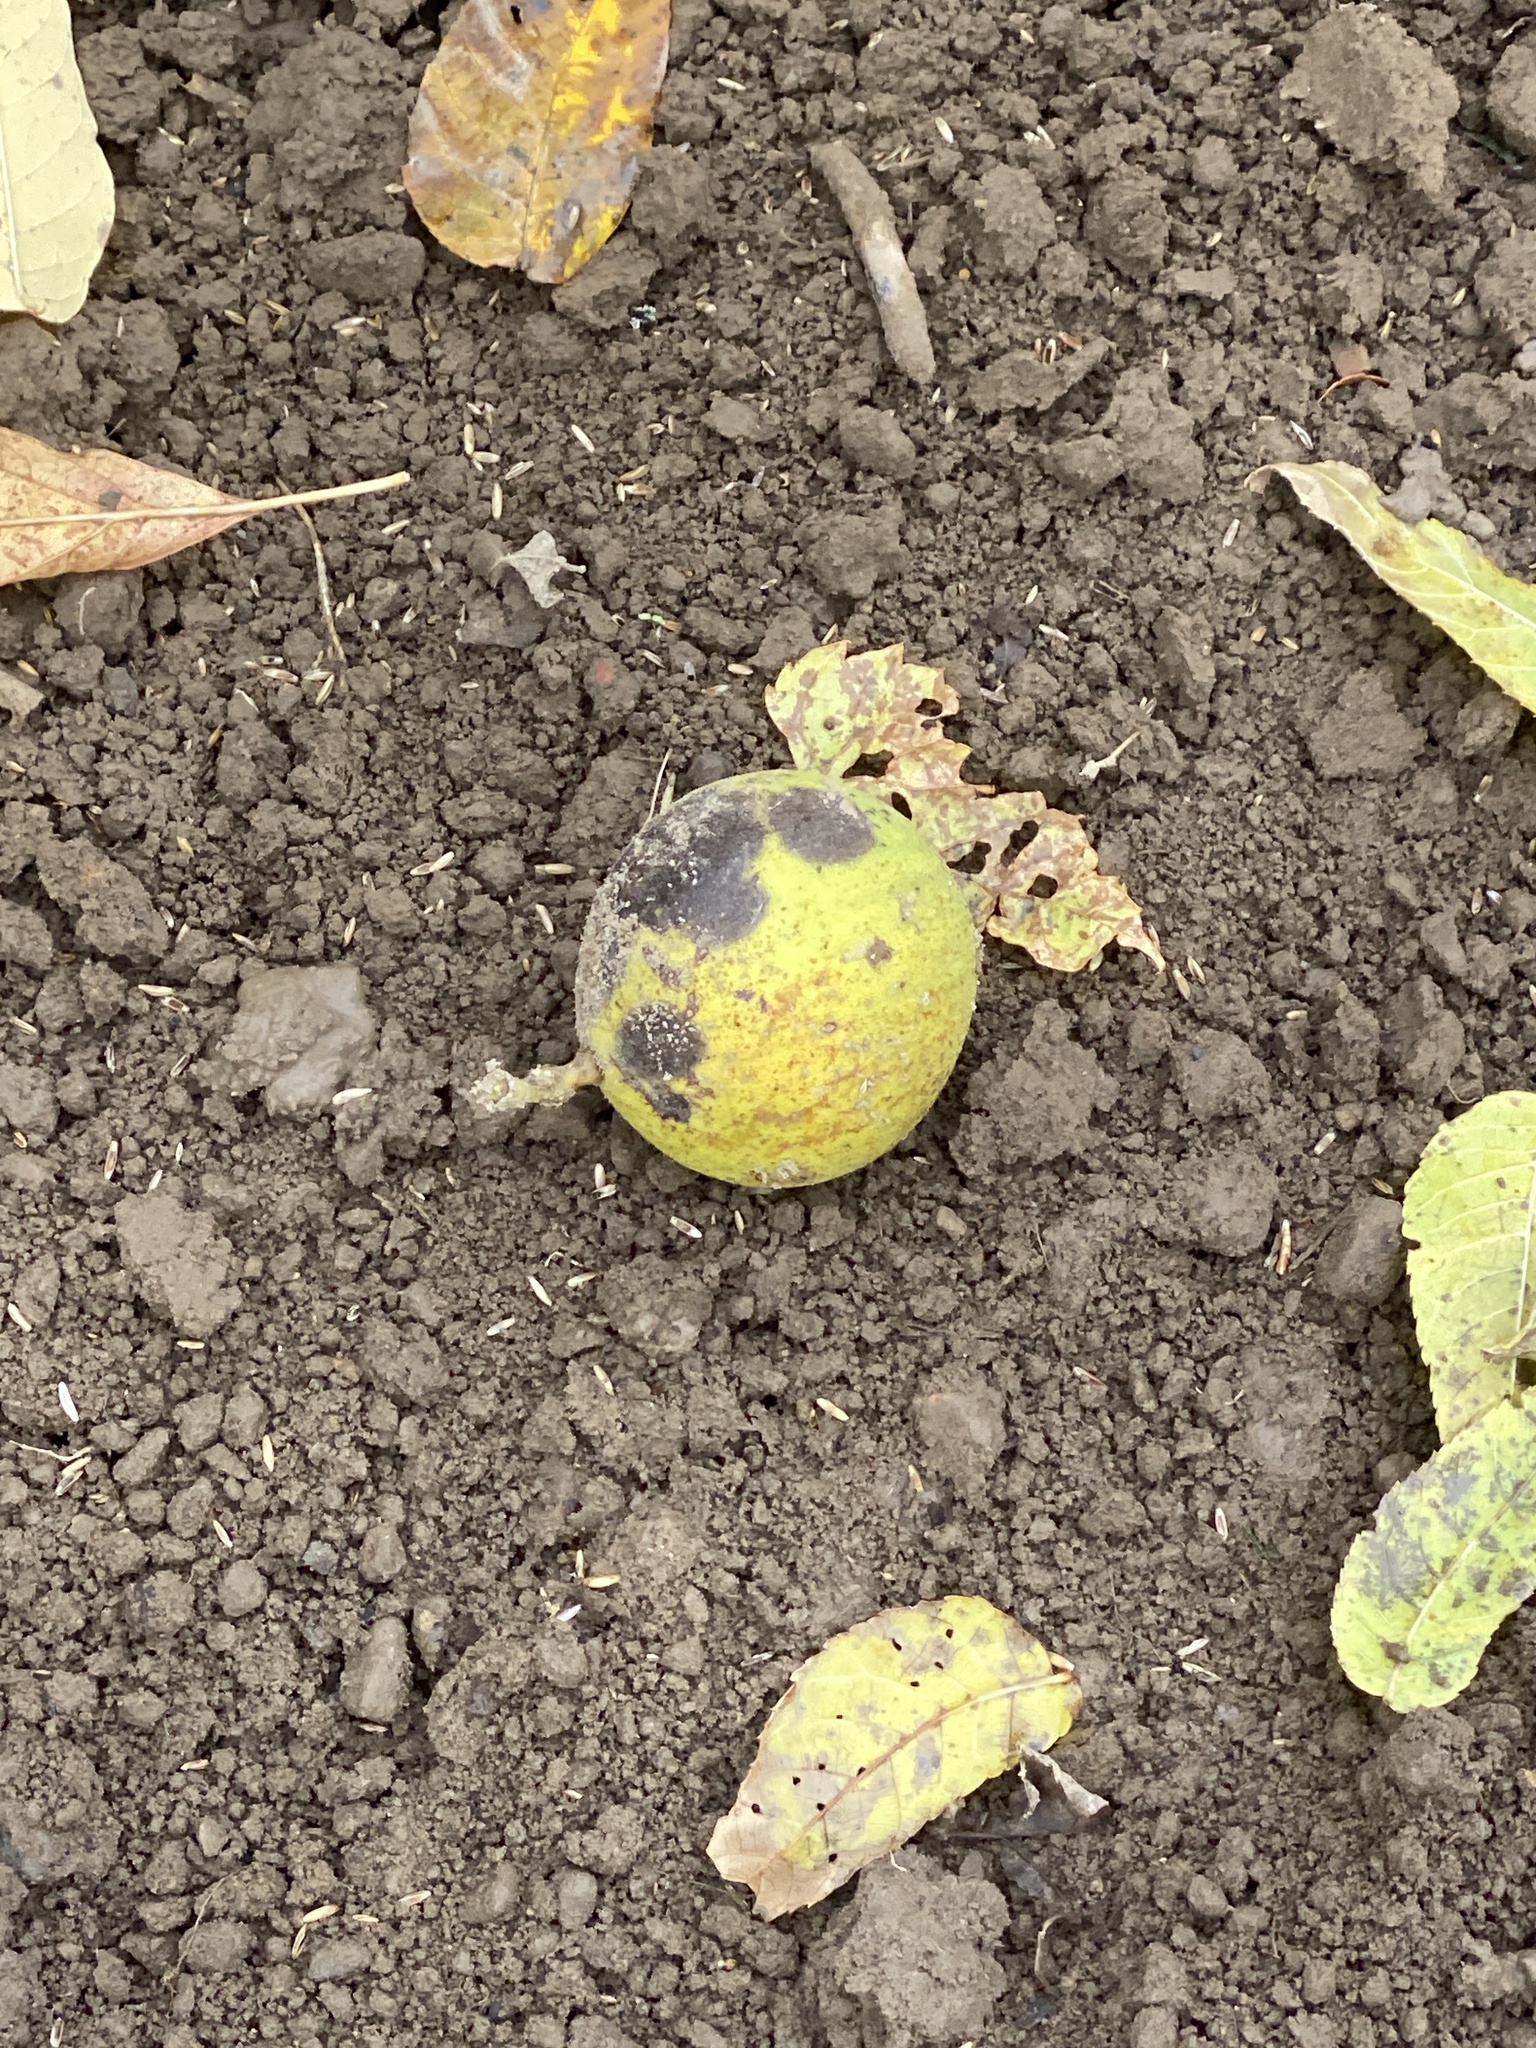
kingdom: Plantae
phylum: Tracheophyta
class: Magnoliopsida
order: Fagales
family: Juglandaceae
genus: Juglans
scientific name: Juglans nigra
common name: Black walnut
